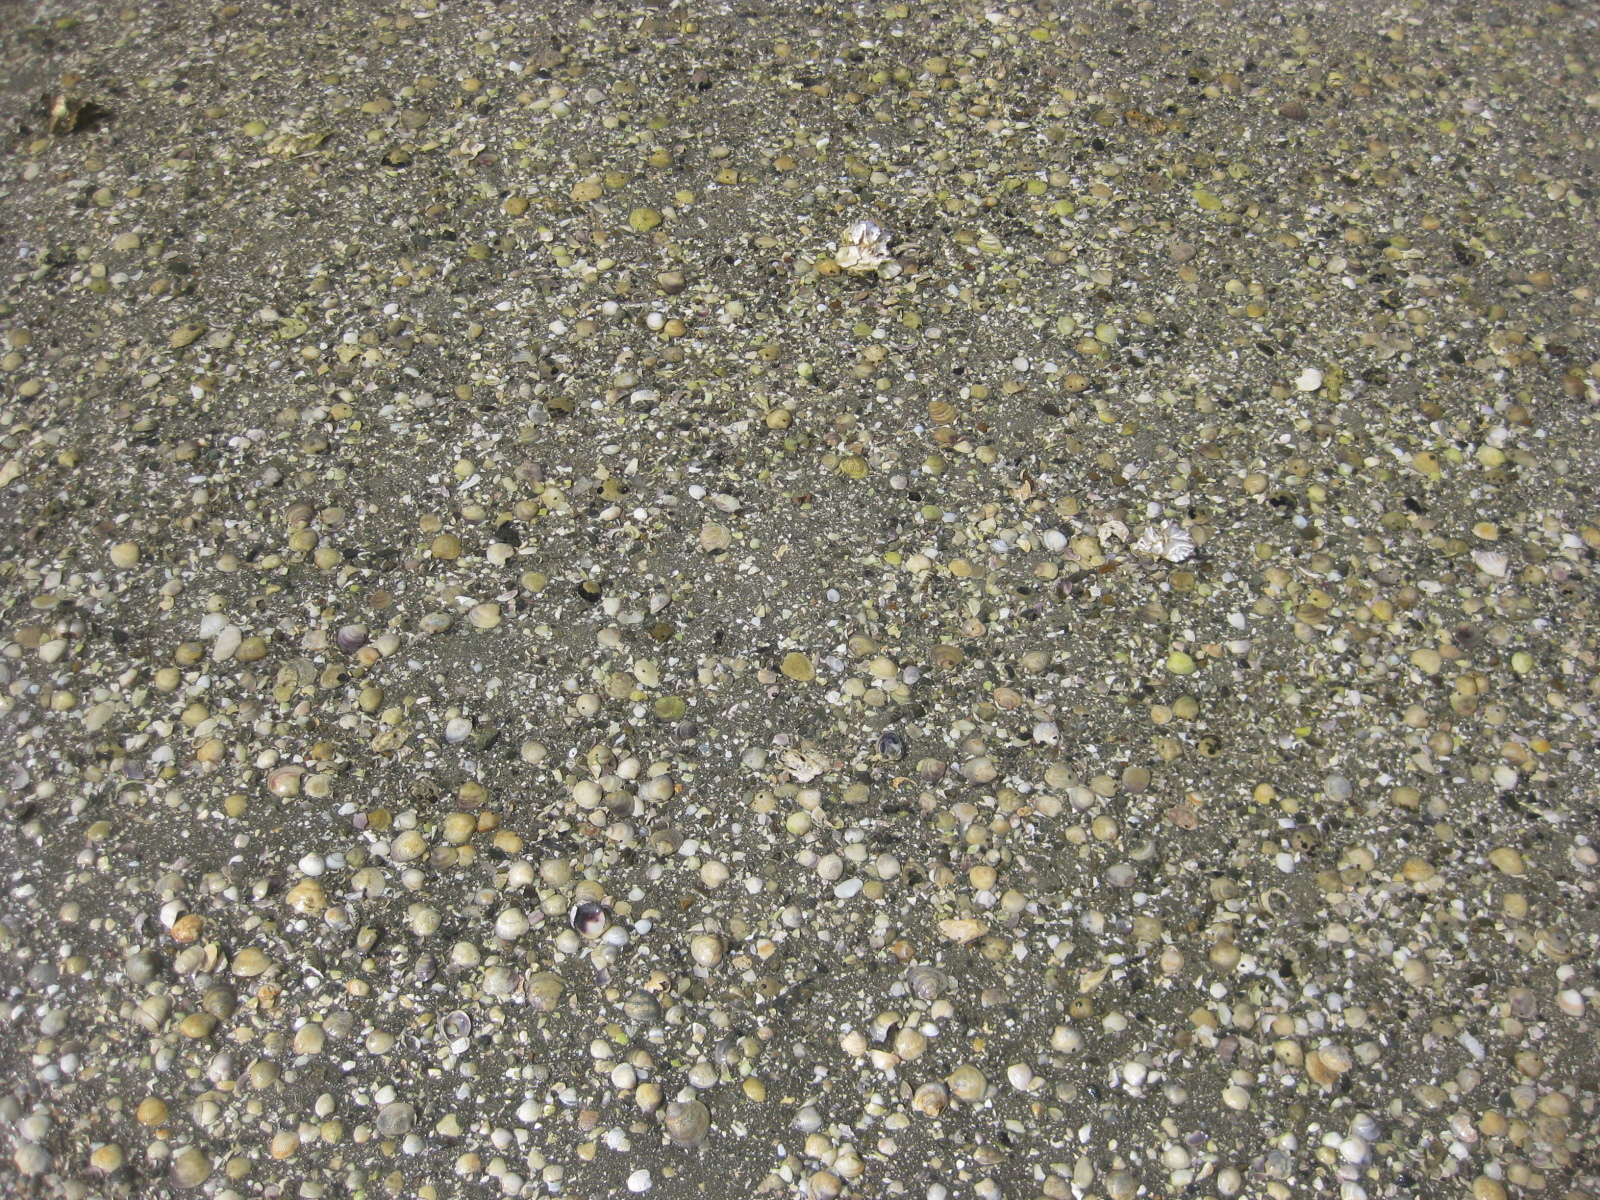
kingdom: Animalia
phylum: Mollusca
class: Bivalvia
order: Venerida
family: Veneridae
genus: Austrovenus
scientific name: Austrovenus stutchburyi
